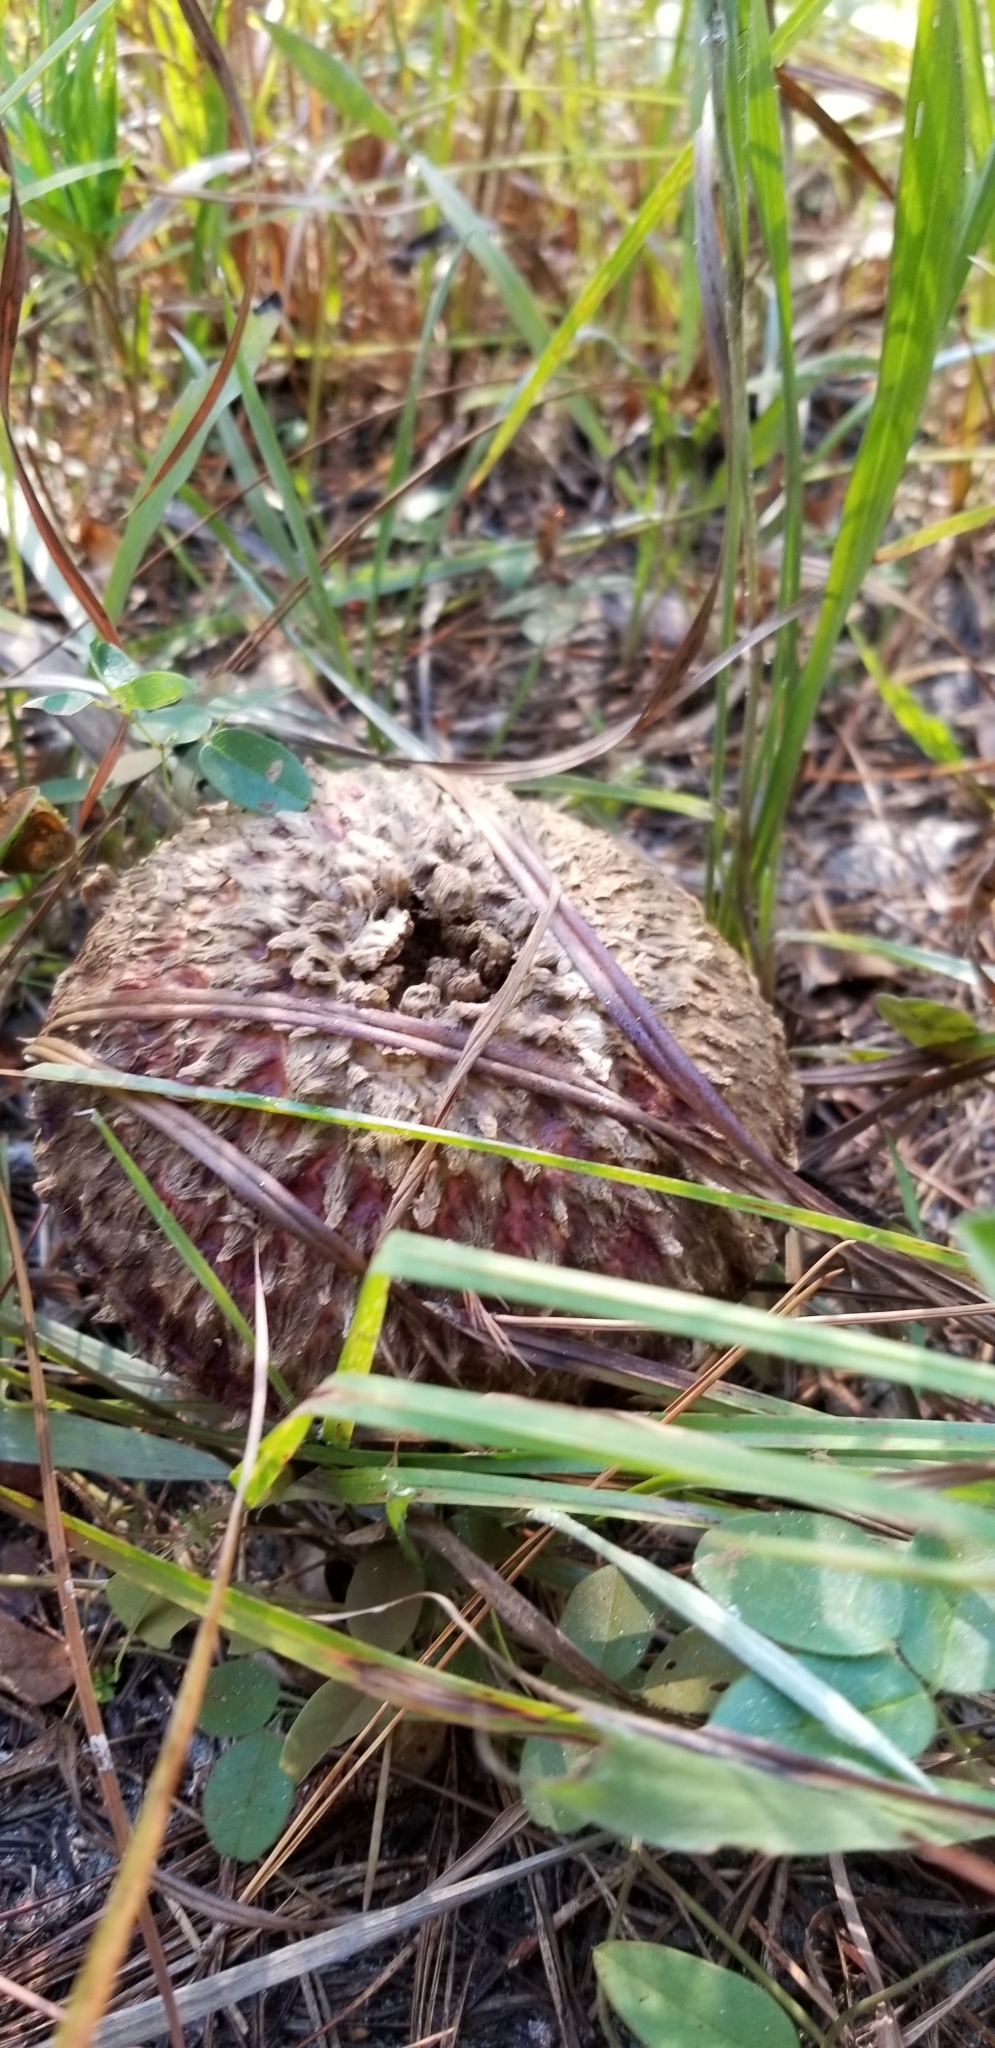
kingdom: Fungi
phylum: Basidiomycota
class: Agaricomycetes
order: Boletales
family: Boletaceae
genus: Boletellus
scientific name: Boletellus ananas
